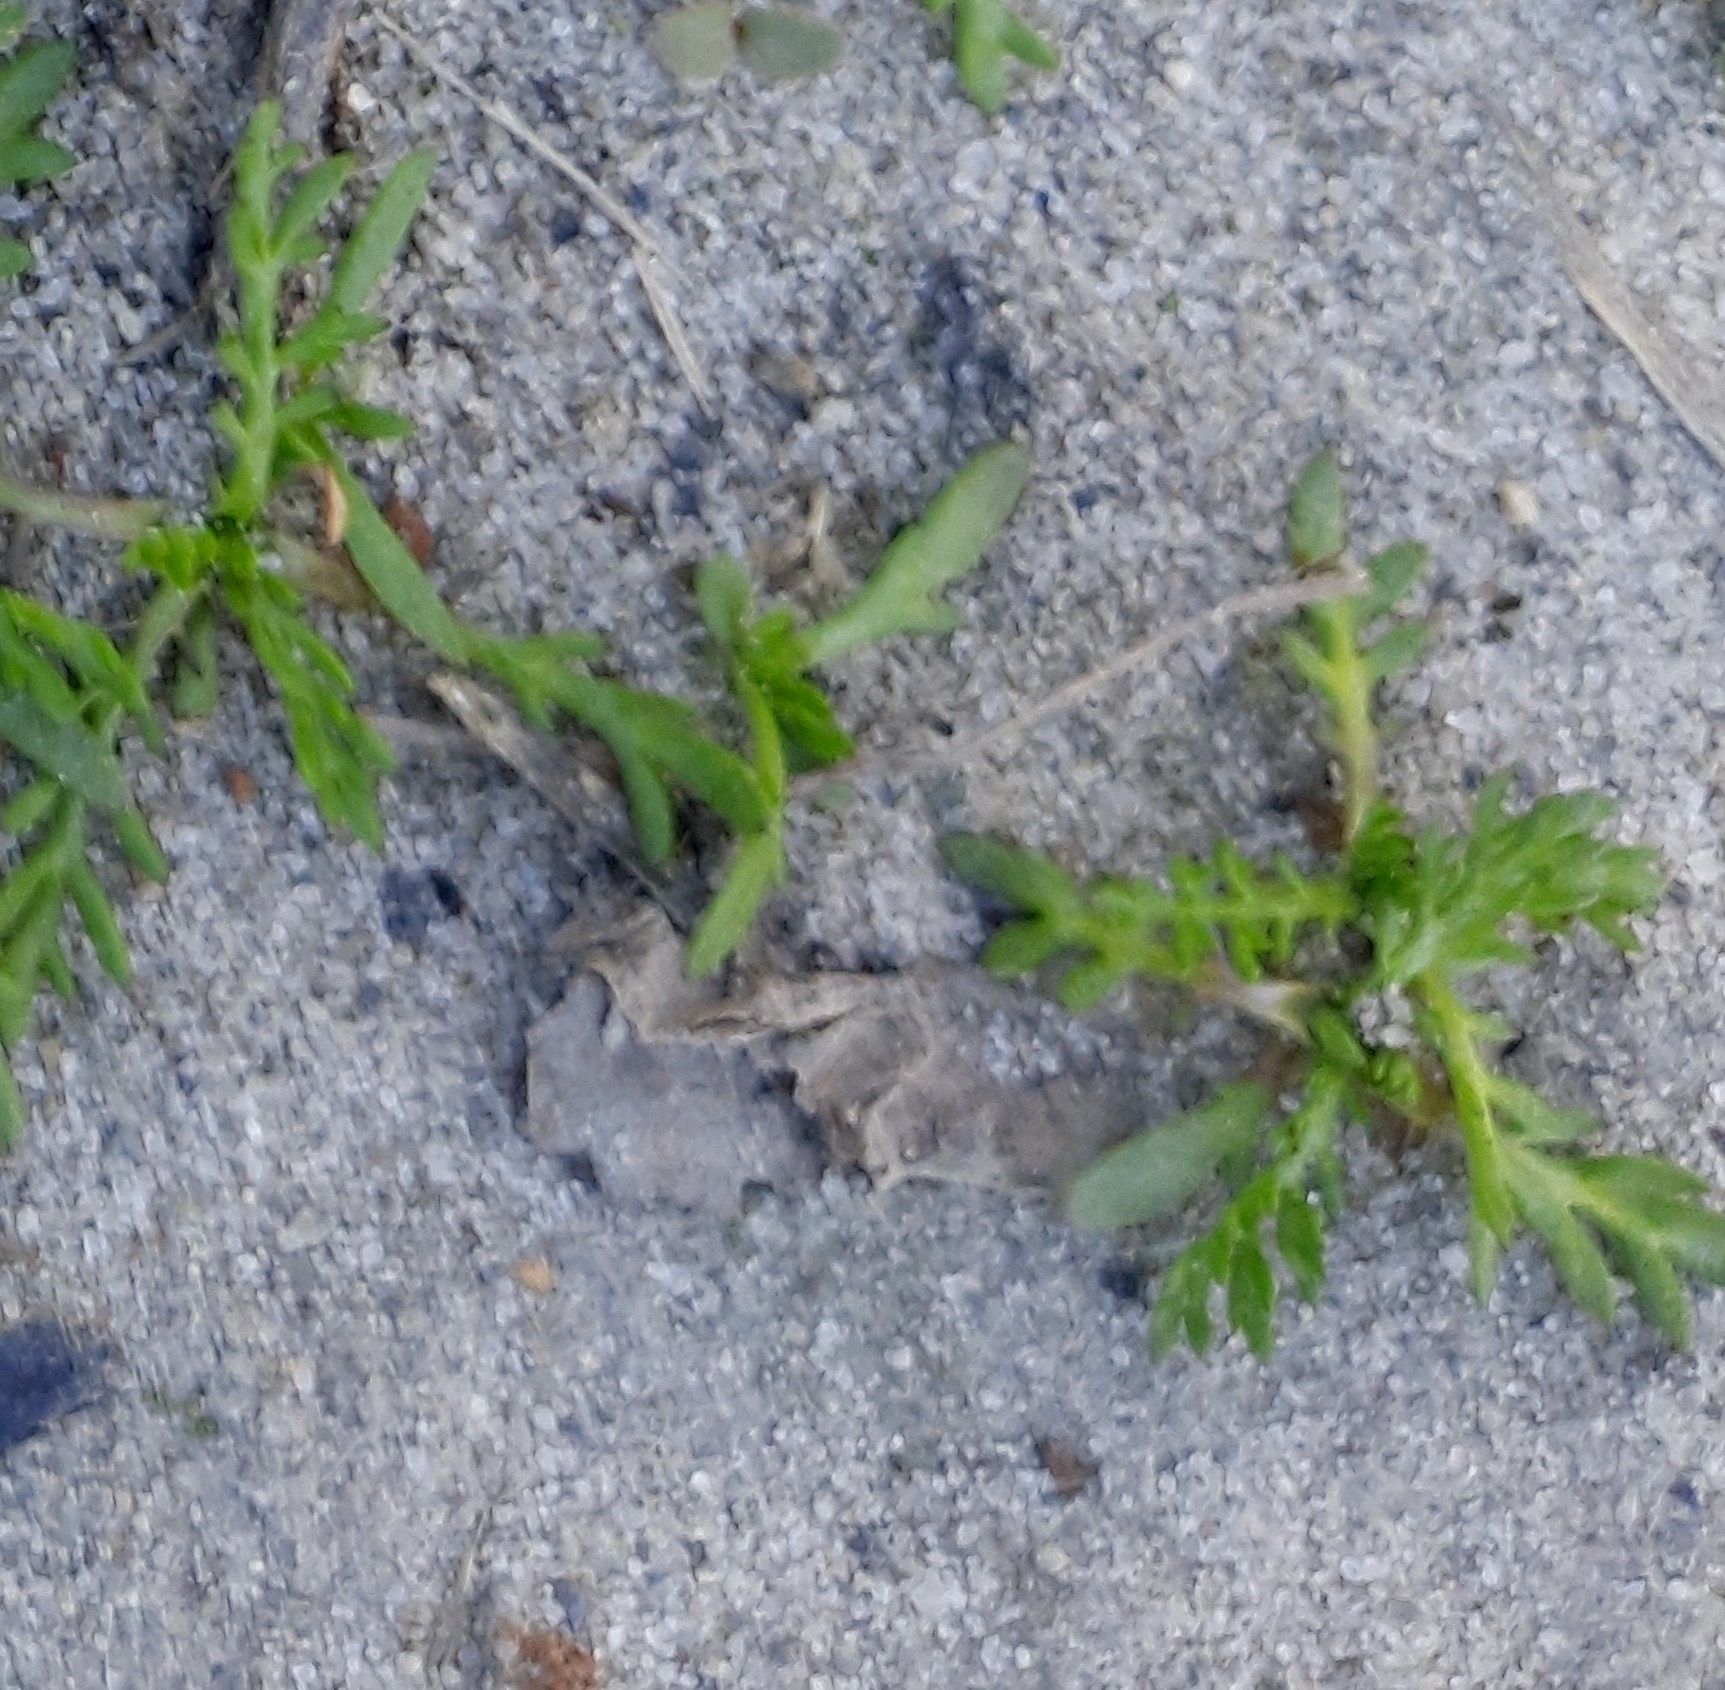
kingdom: Plantae
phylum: Tracheophyta
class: Magnoliopsida
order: Asterales
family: Asteraceae
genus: Matricaria
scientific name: Matricaria discoidea
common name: Disc mayweed
